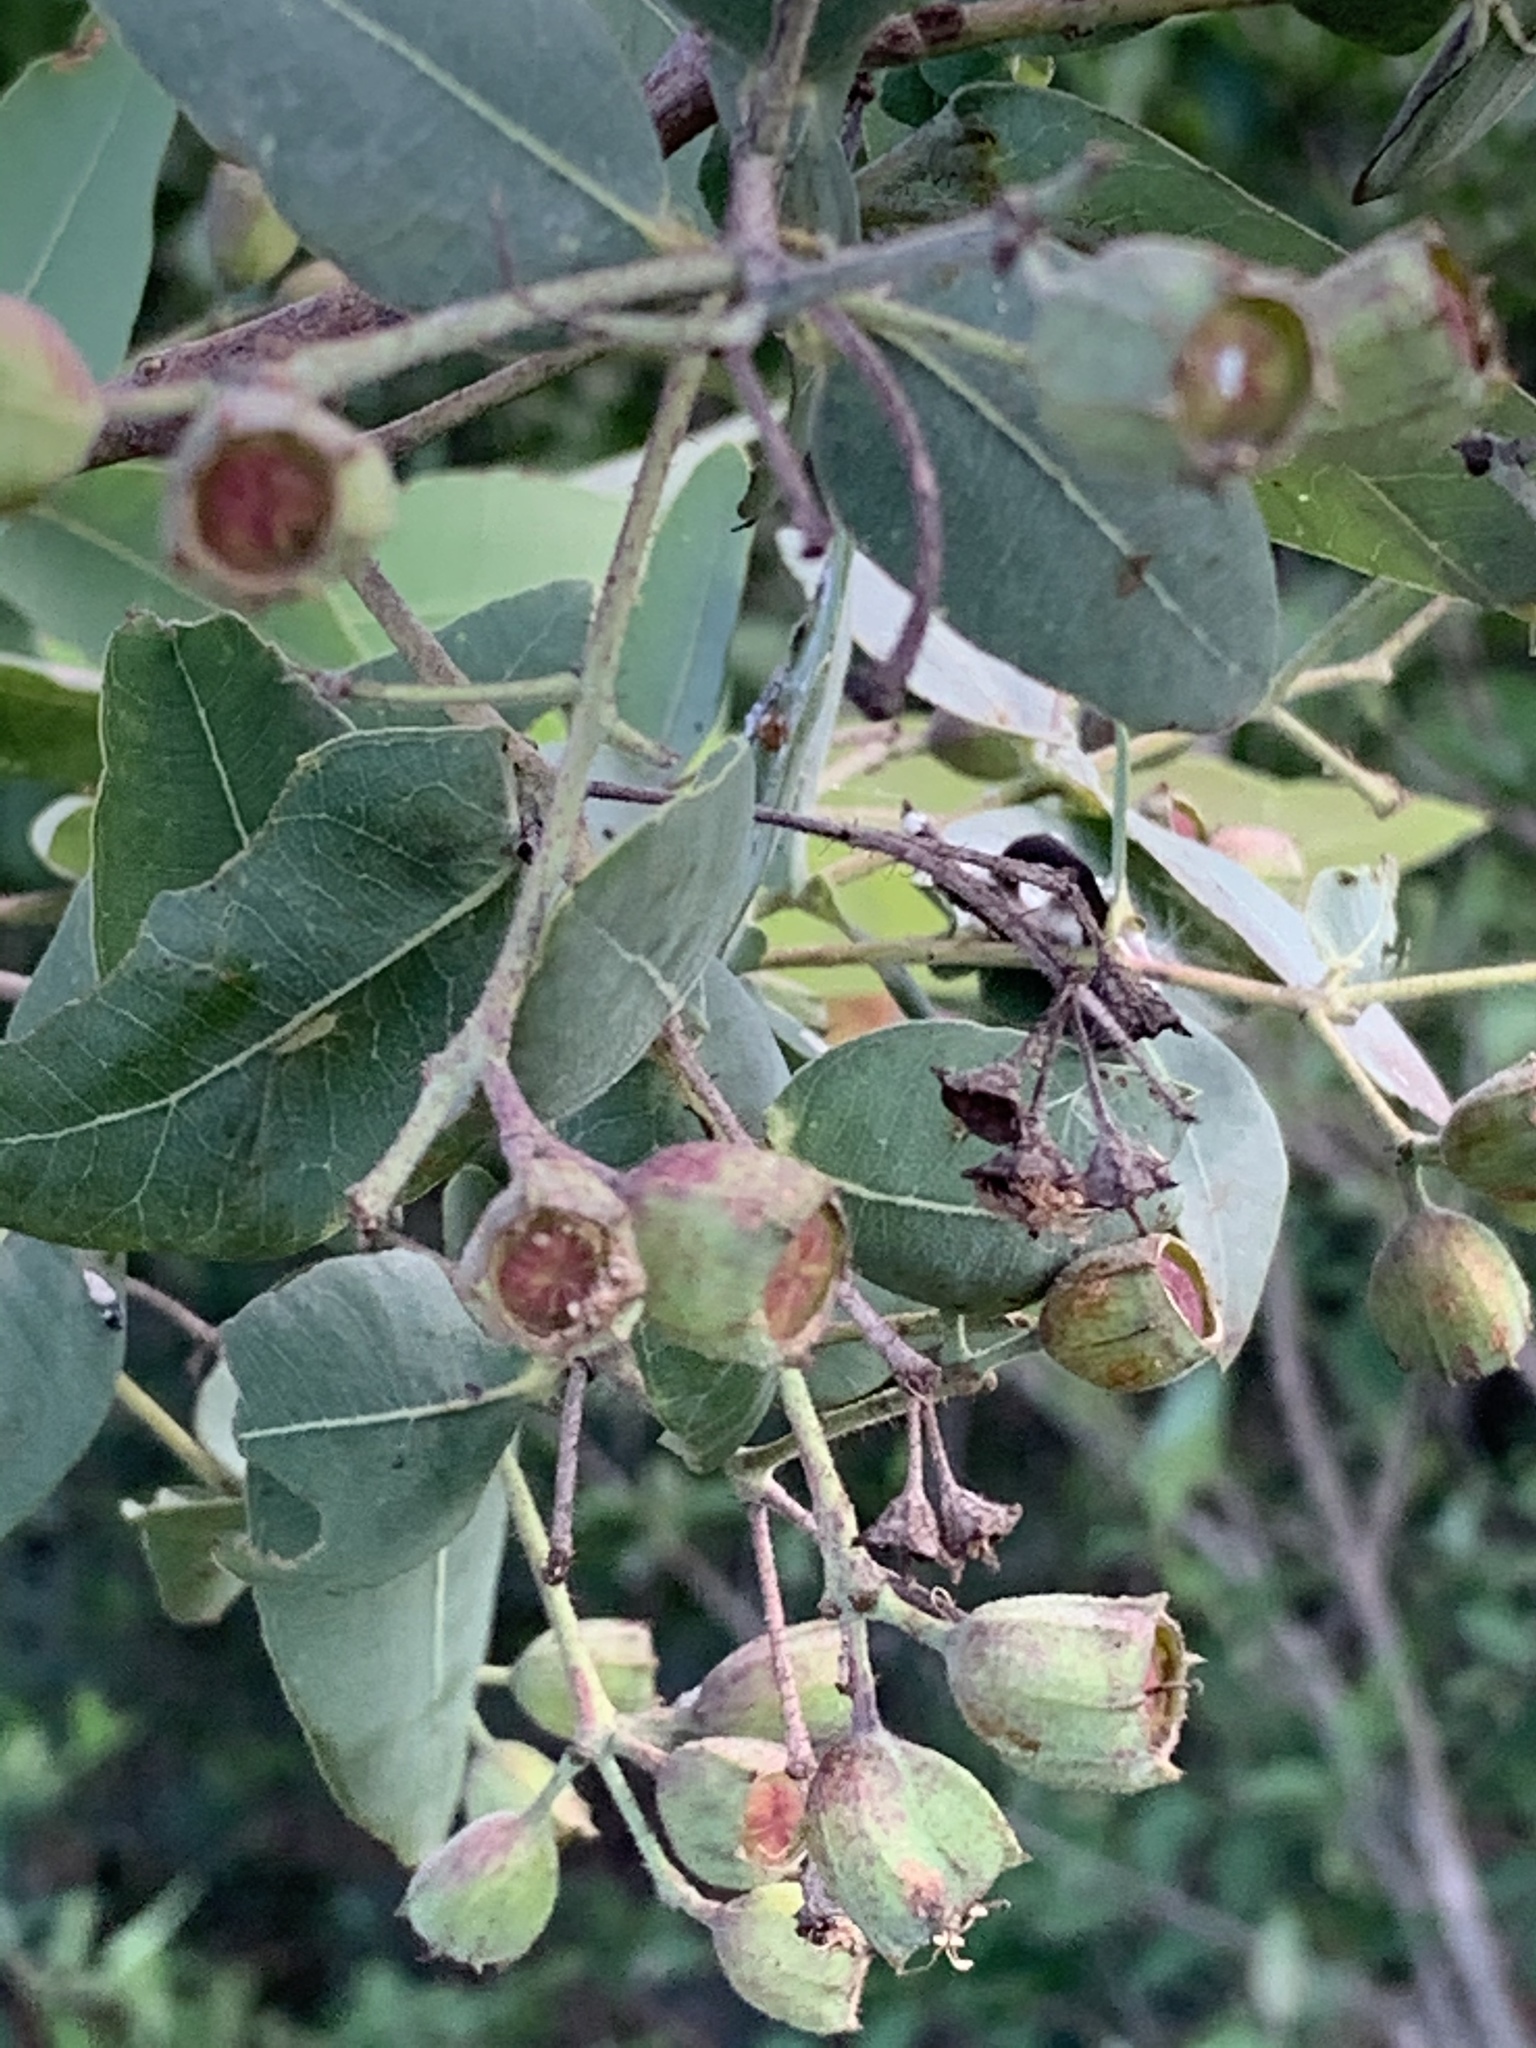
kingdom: Plantae
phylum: Tracheophyta
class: Magnoliopsida
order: Myrtales
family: Myrtaceae
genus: Angophora
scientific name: Angophora floribunda
